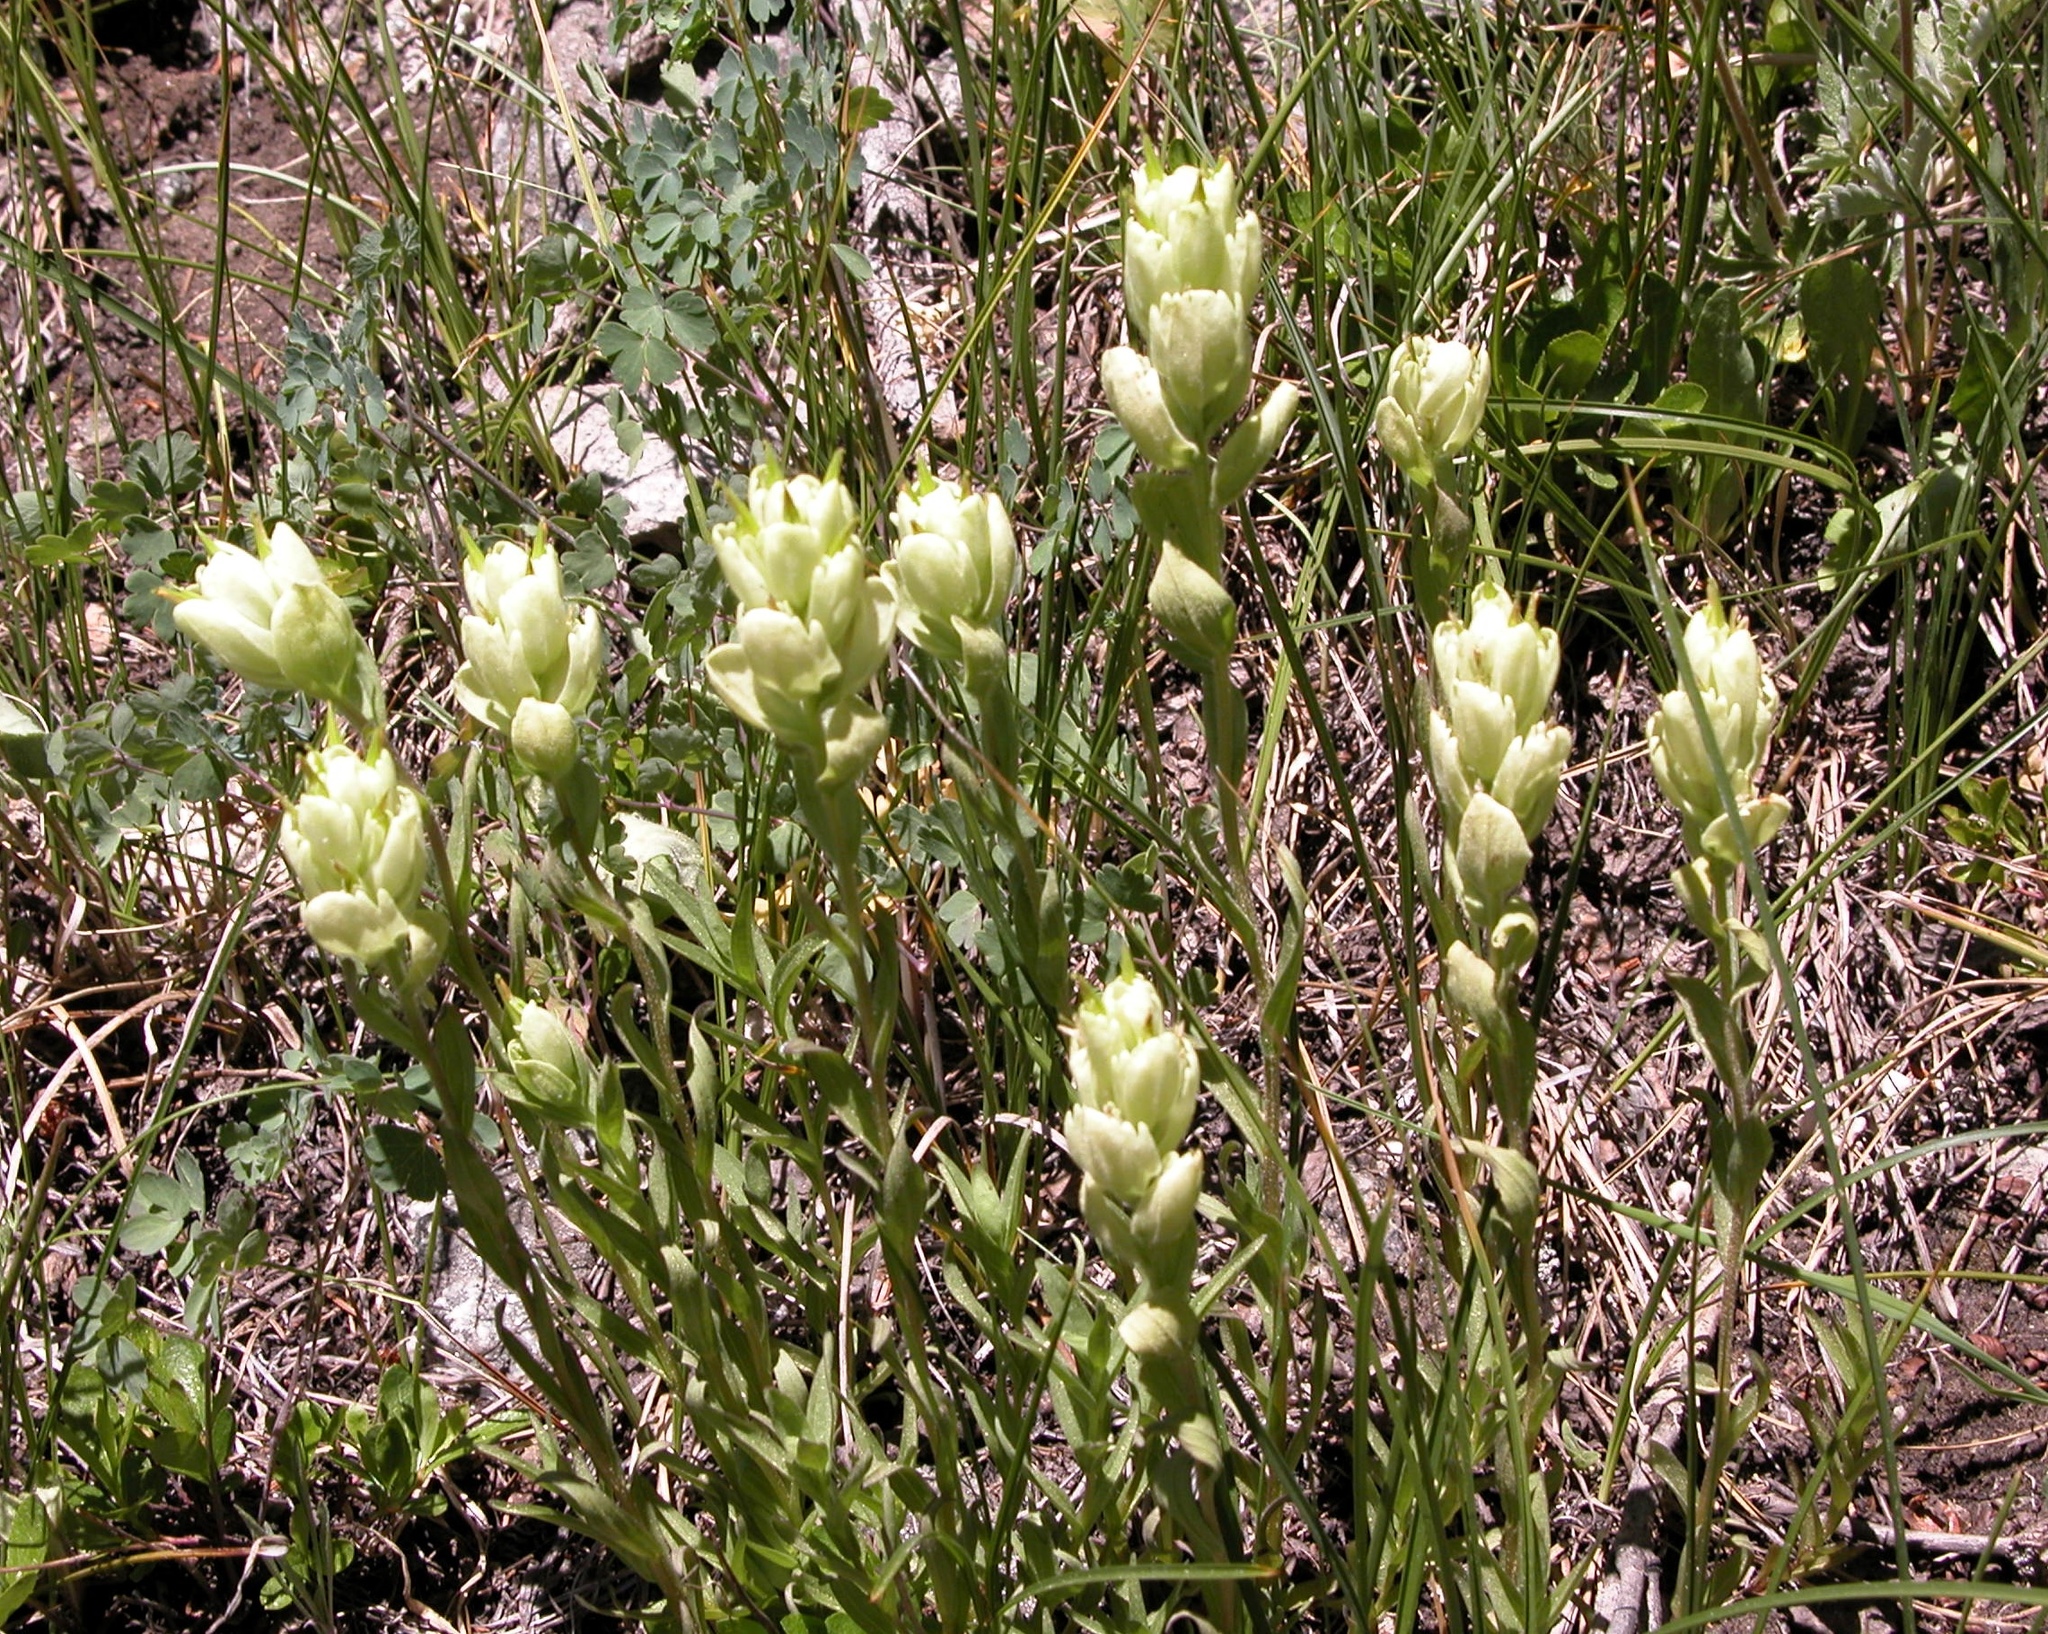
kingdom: Plantae
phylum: Tracheophyta
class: Magnoliopsida
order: Lamiales
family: Orobanchaceae
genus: Castilleja
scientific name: Castilleja occidentalis
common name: Western paintbrush
